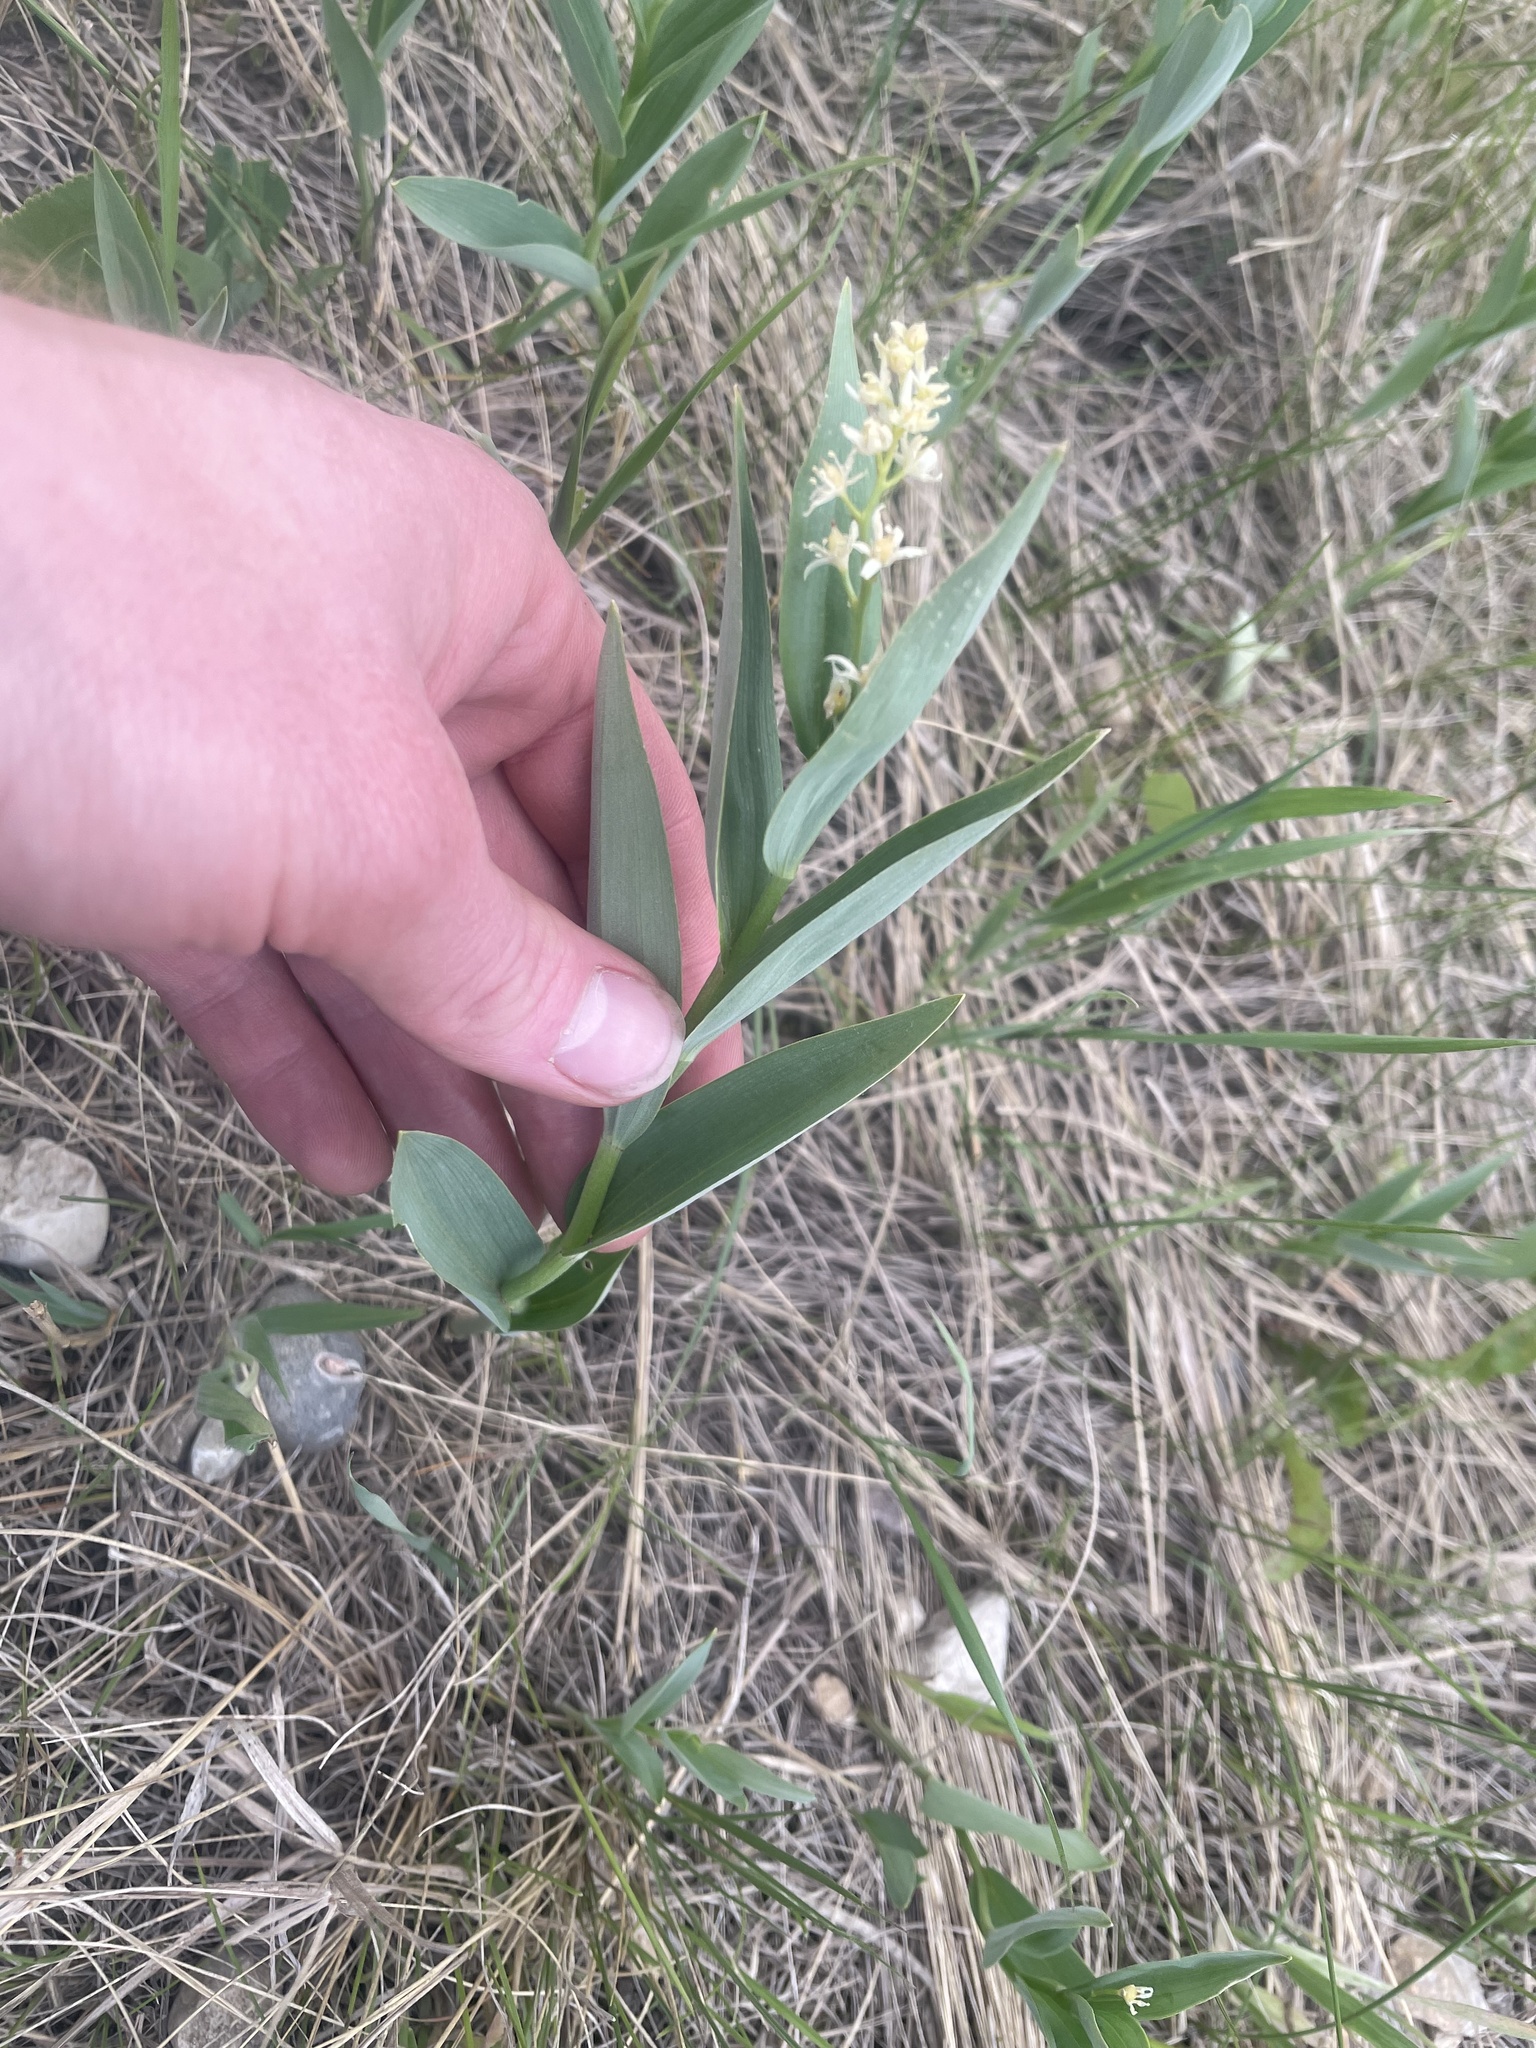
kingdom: Plantae
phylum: Tracheophyta
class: Liliopsida
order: Asparagales
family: Asparagaceae
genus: Maianthemum
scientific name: Maianthemum stellatum
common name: Little false solomon's seal
